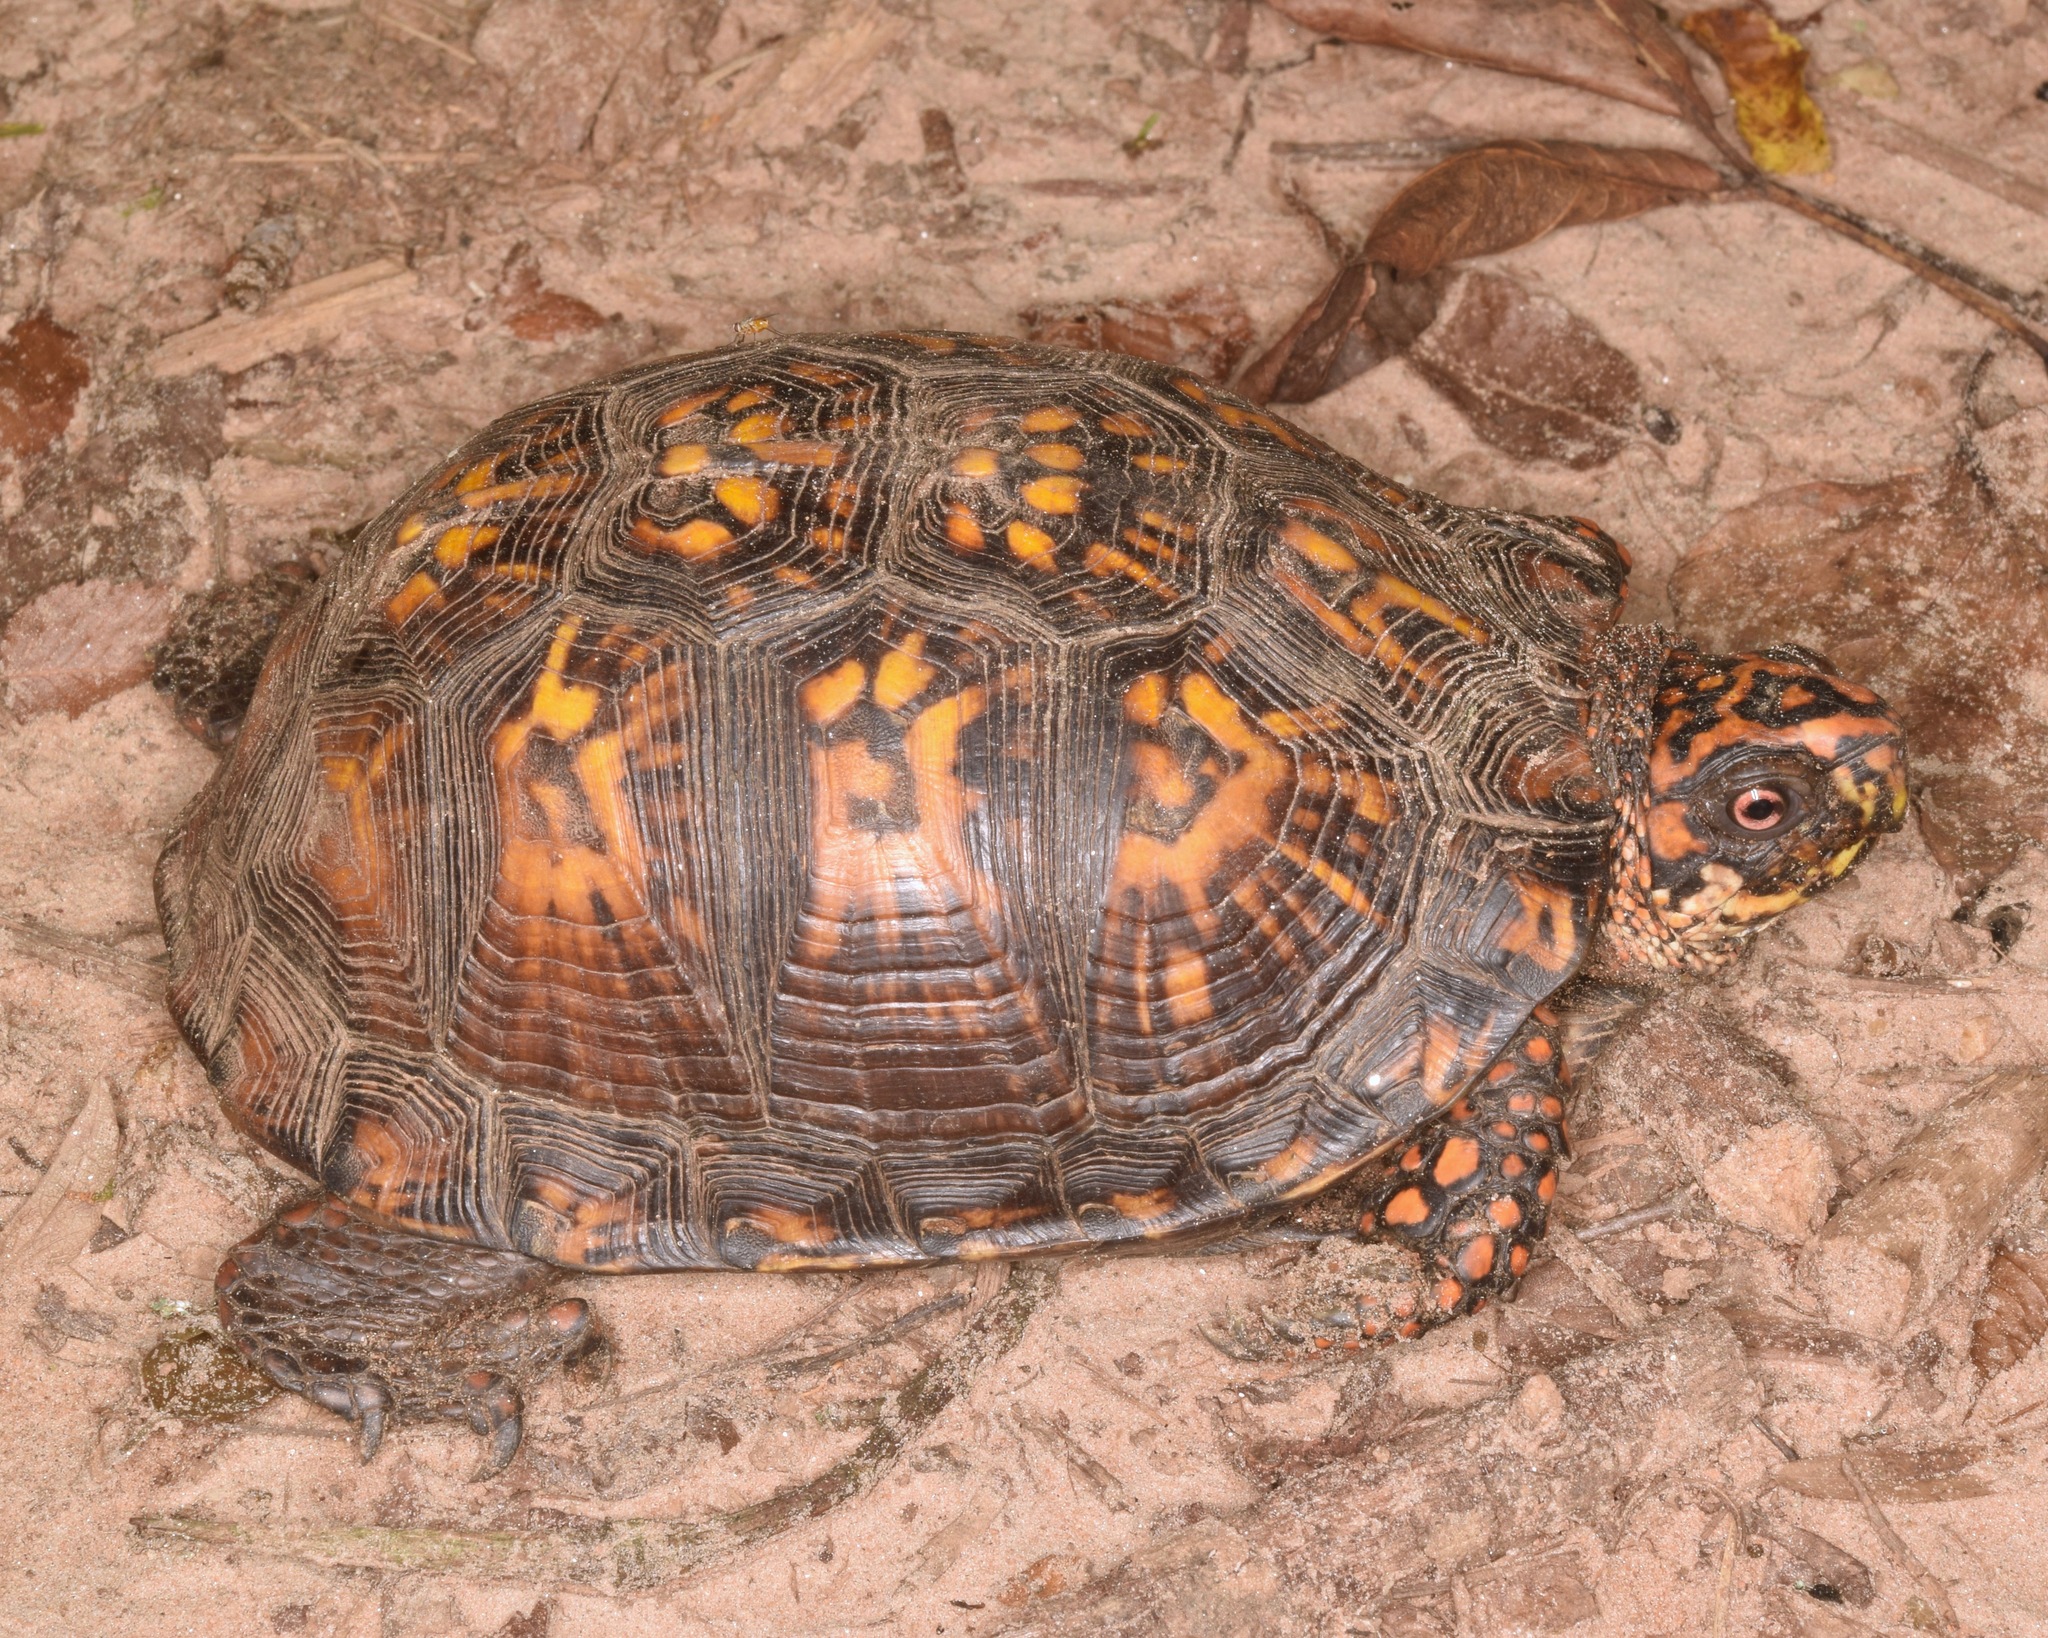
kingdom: Animalia
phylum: Chordata
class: Testudines
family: Emydidae
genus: Terrapene
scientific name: Terrapene carolina
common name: Common box turtle
